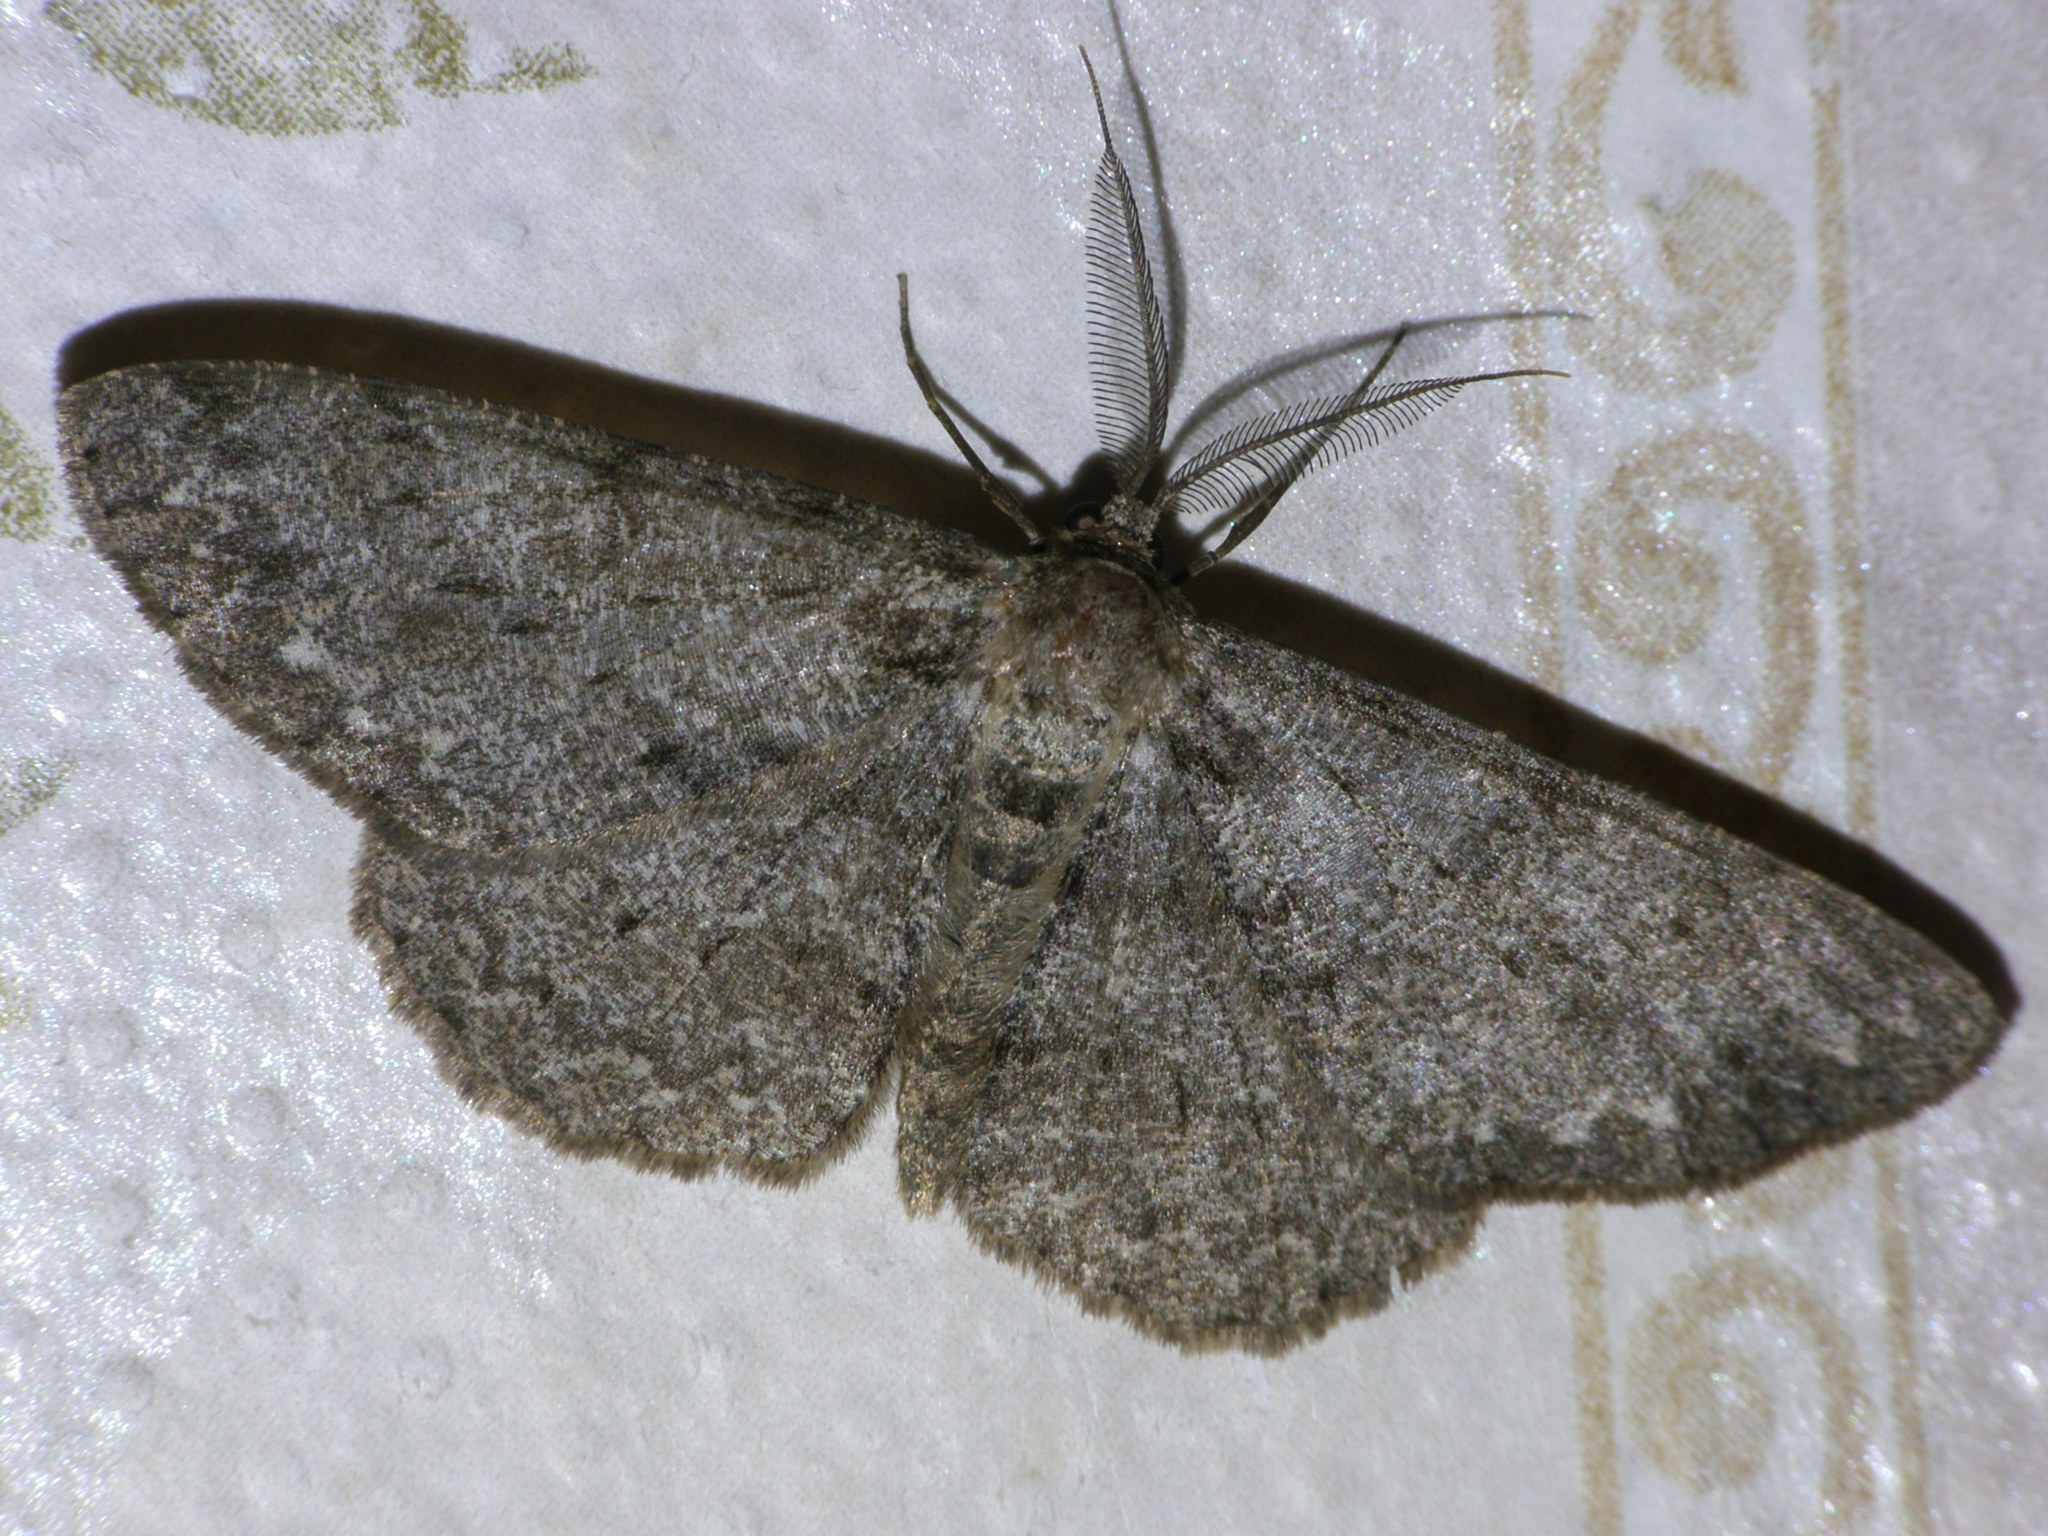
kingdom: Animalia
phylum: Arthropoda
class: Insecta
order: Lepidoptera
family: Geometridae
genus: Hypomecis
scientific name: Hypomecis punctinalis
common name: Pale oak beauty
